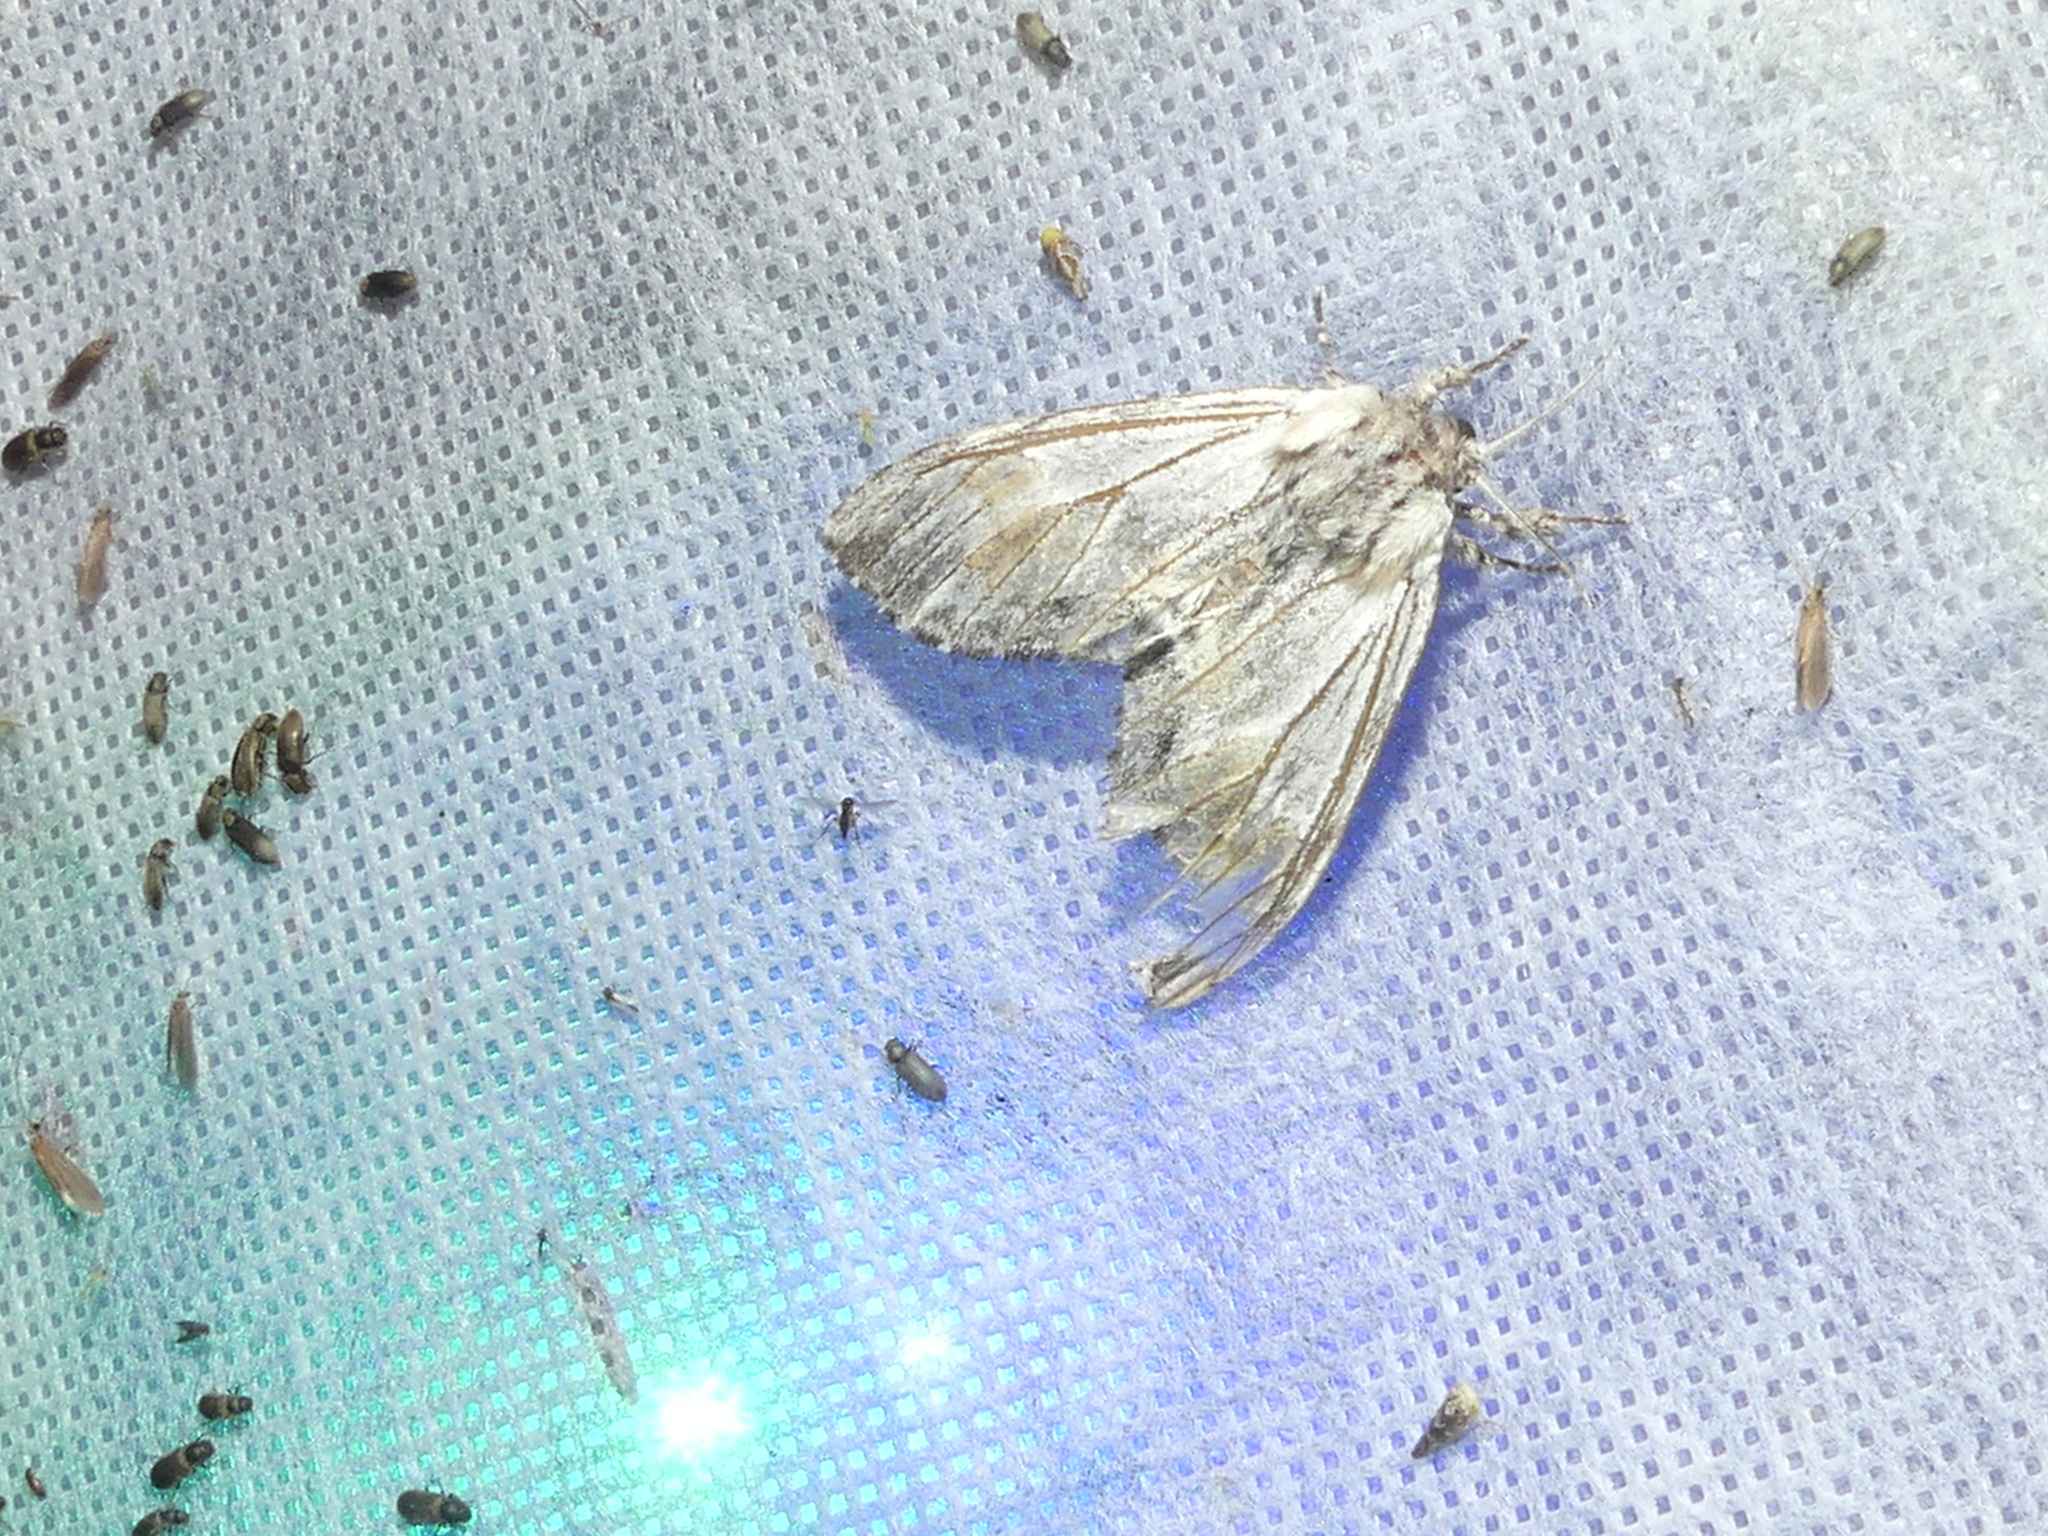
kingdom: Animalia
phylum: Arthropoda
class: Insecta
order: Lepidoptera
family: Notodontidae
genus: Harpyia
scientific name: Harpyia milhauseri
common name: Tawny prominent
